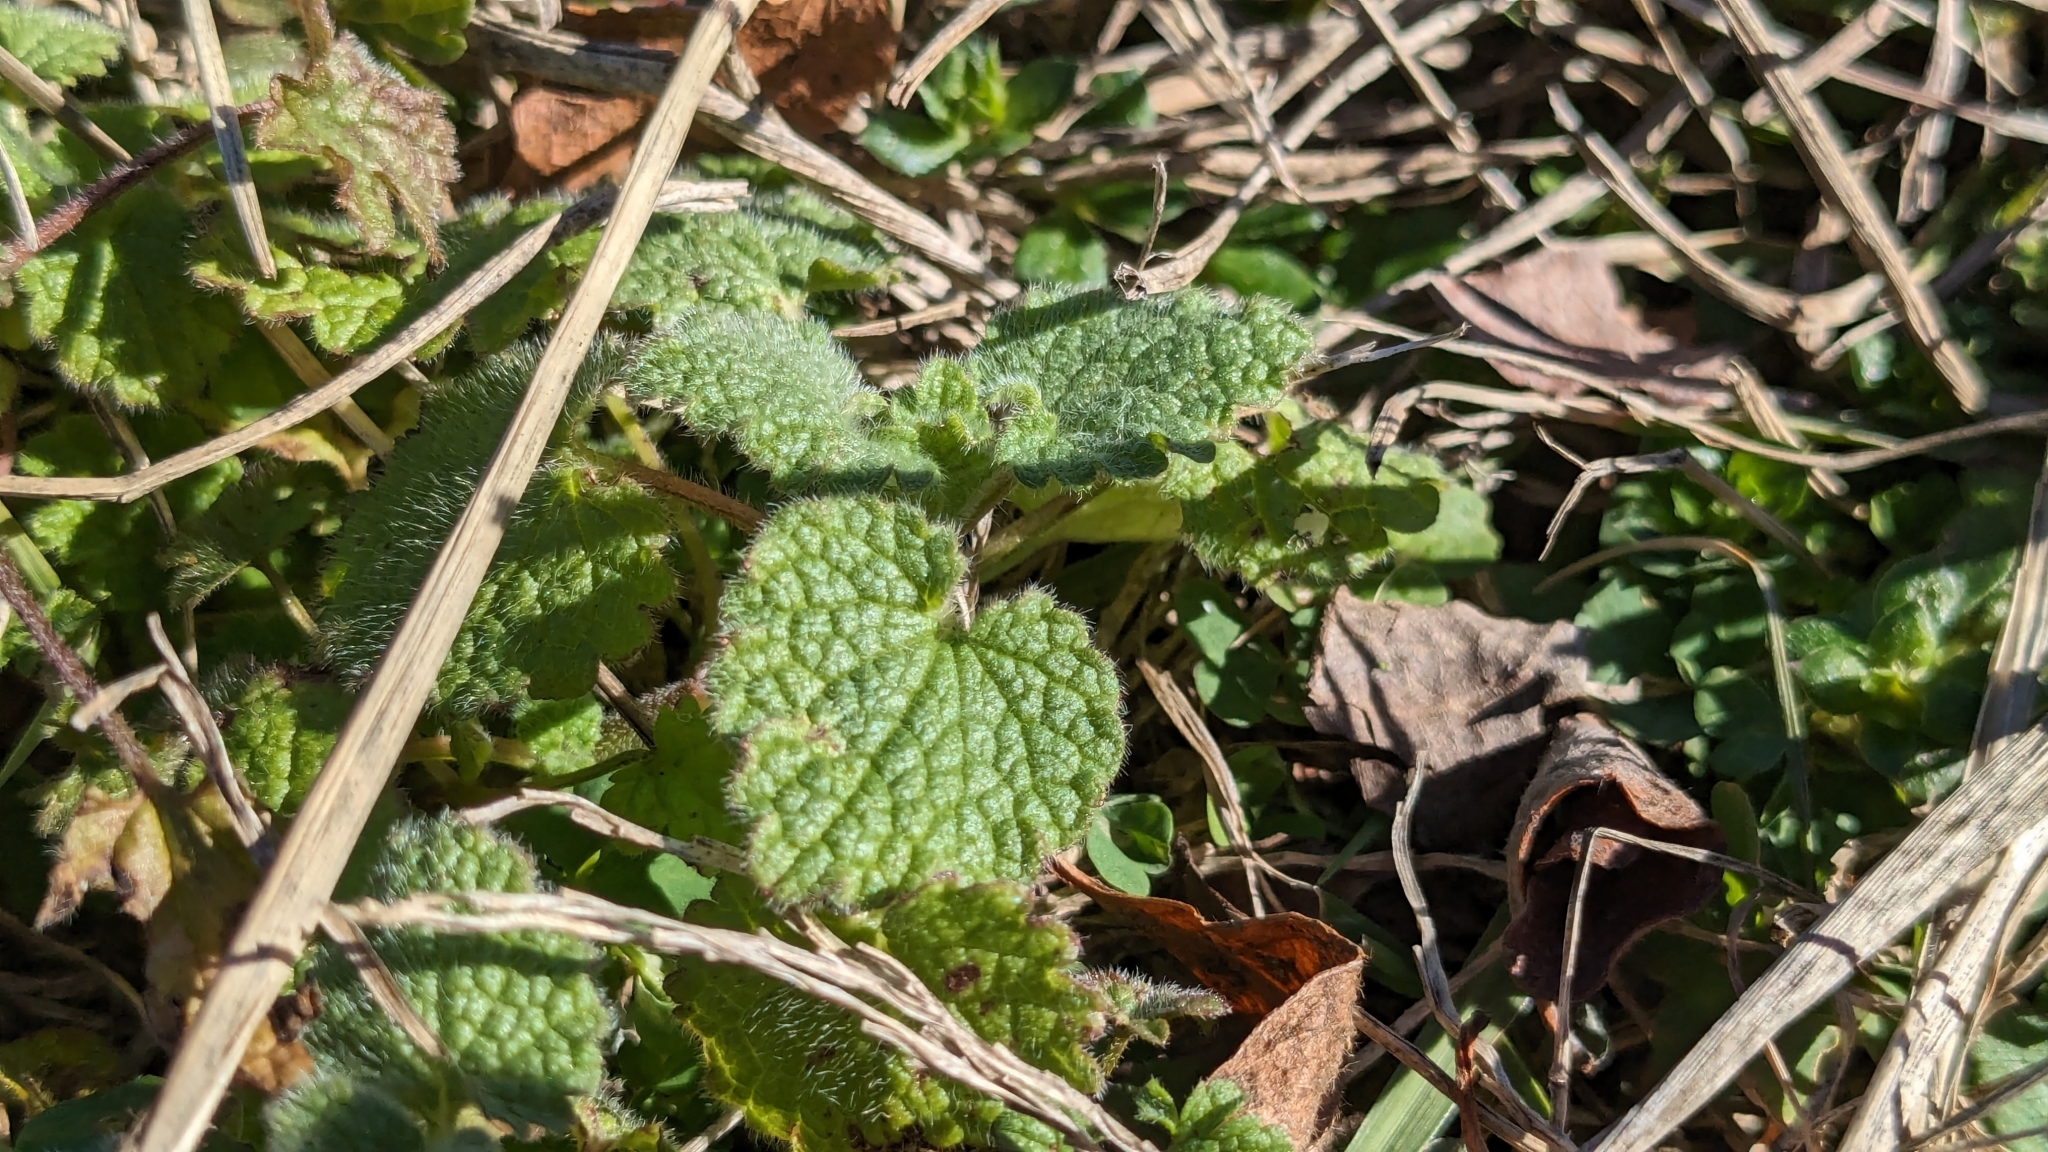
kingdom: Plantae
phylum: Tracheophyta
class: Magnoliopsida
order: Lamiales
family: Lamiaceae
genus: Lamium
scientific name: Lamium purpureum
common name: Red dead-nettle
